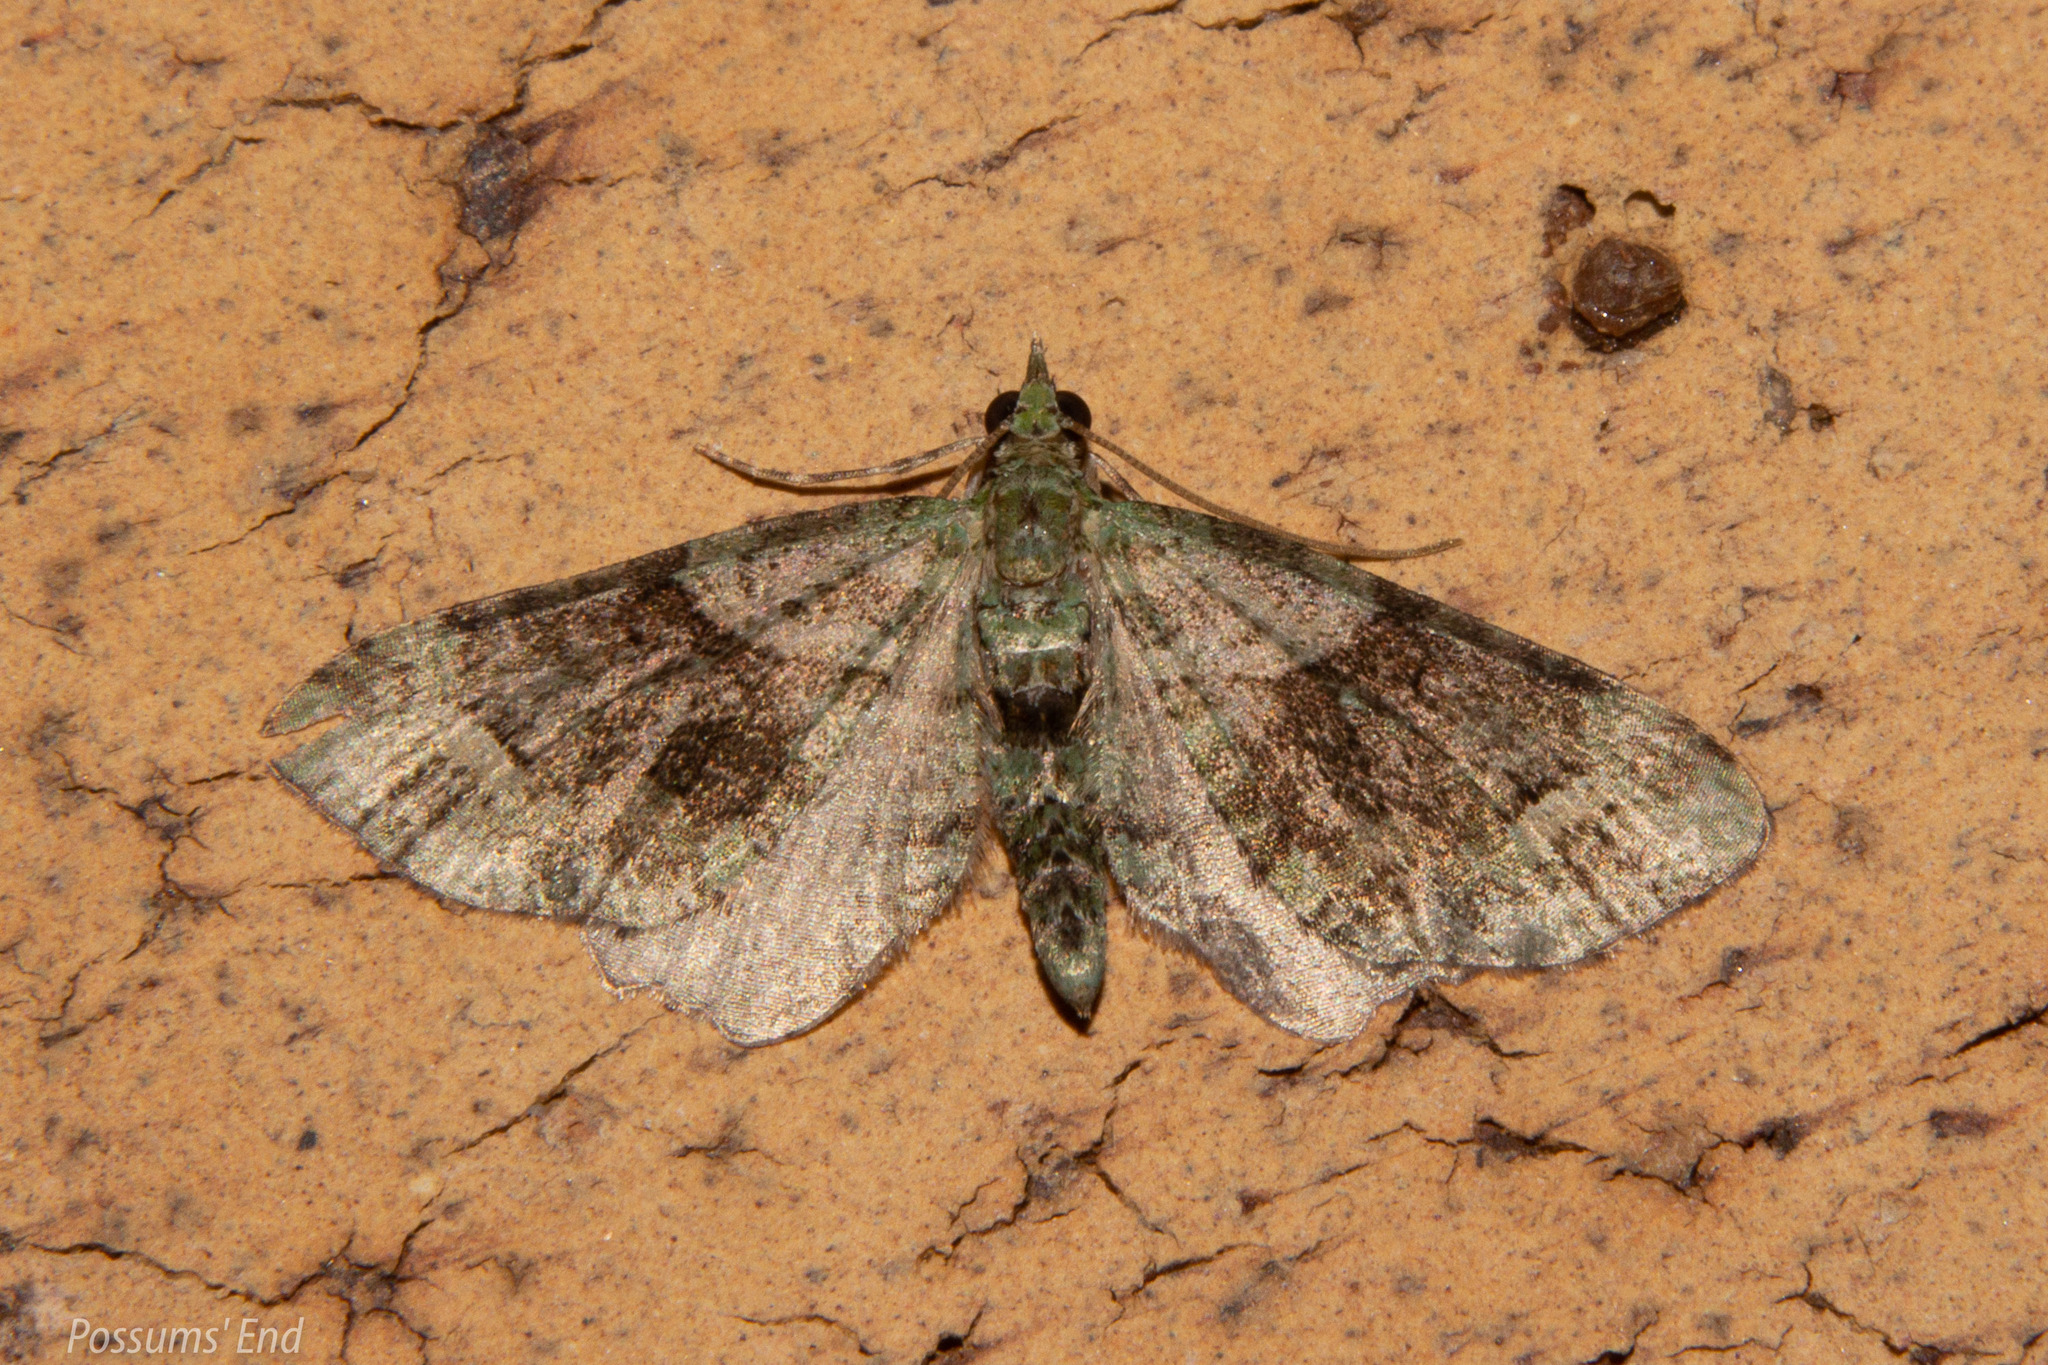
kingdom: Animalia
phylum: Arthropoda
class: Insecta
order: Lepidoptera
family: Geometridae
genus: Idaea
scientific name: Idaea mutanda
